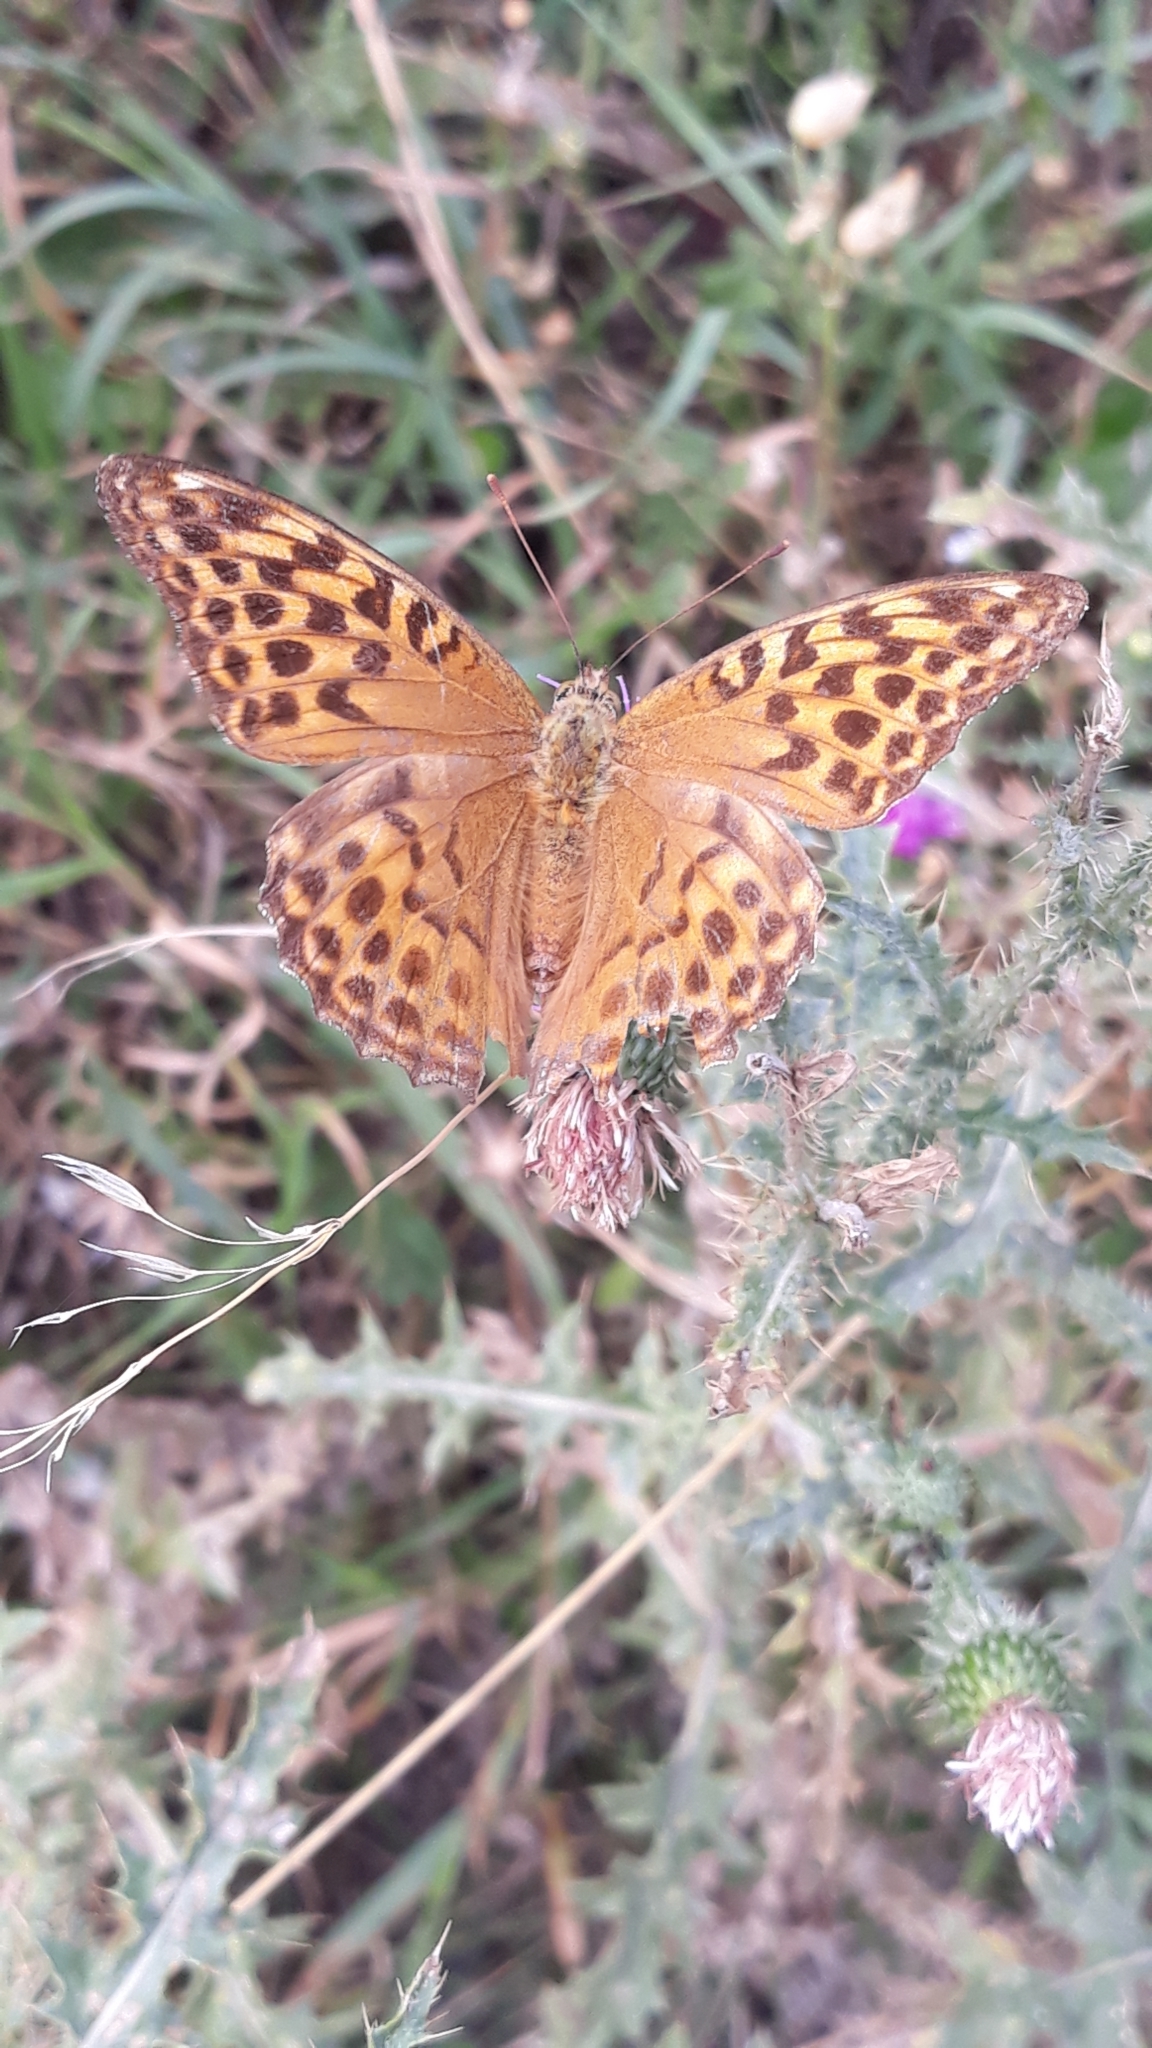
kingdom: Animalia
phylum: Arthropoda
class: Insecta
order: Lepidoptera
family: Nymphalidae
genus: Argynnis
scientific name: Argynnis paphia
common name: Silver-washed fritillary
